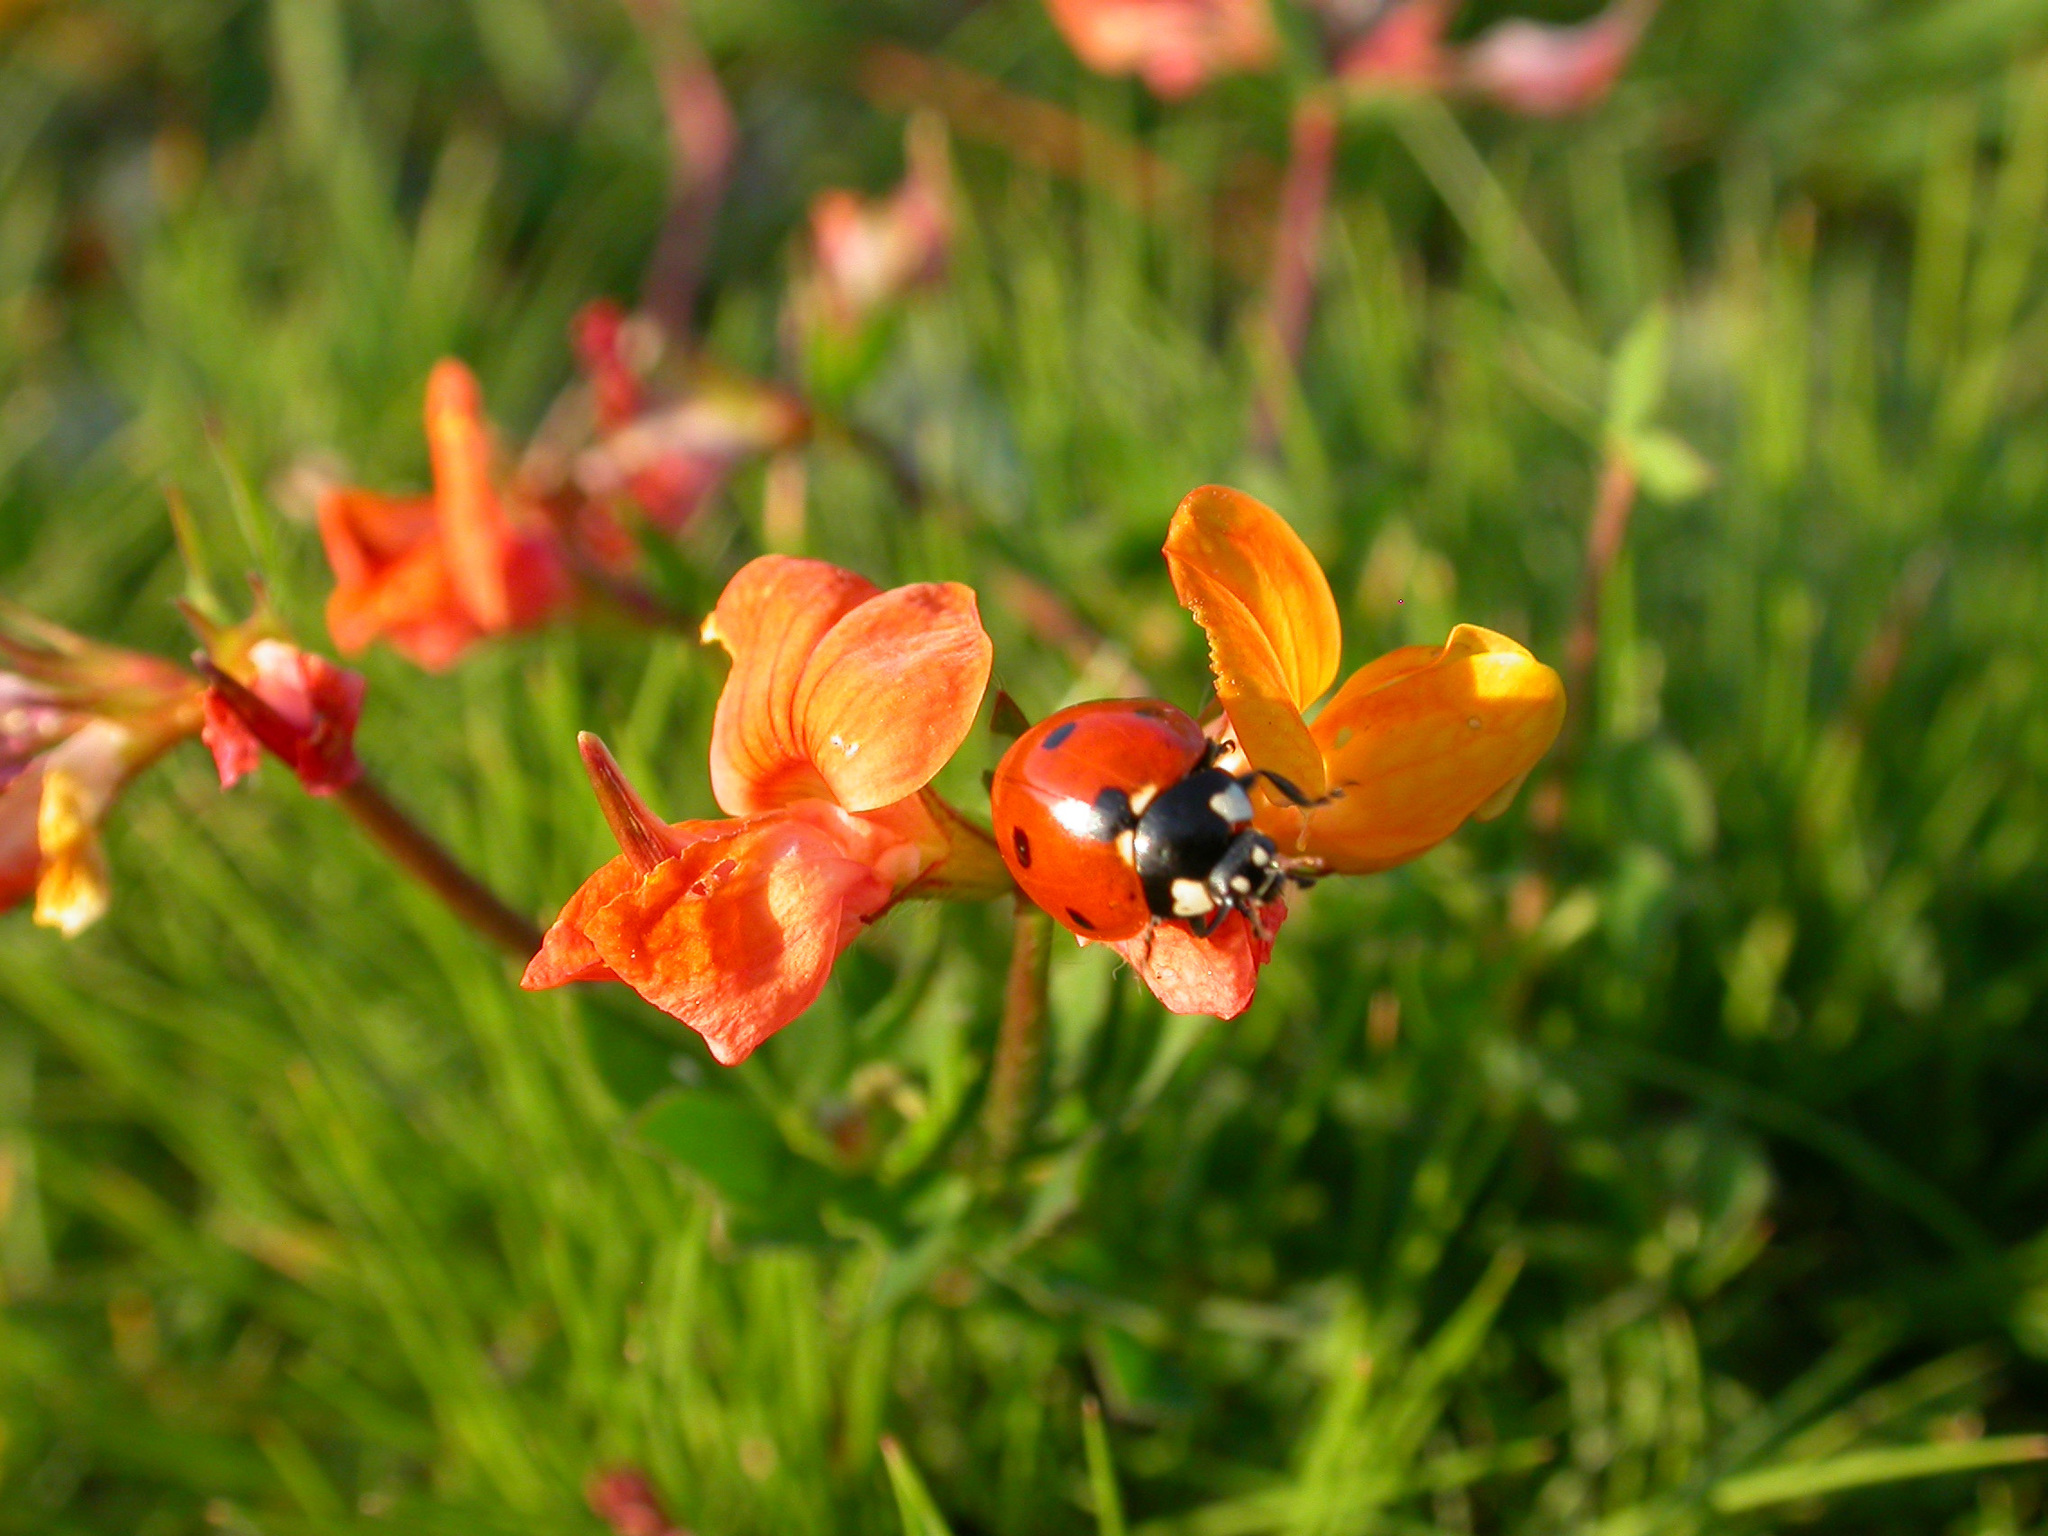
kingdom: Animalia
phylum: Arthropoda
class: Insecta
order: Coleoptera
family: Coccinellidae
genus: Coccinella
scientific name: Coccinella septempunctata
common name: Sevenspotted lady beetle
